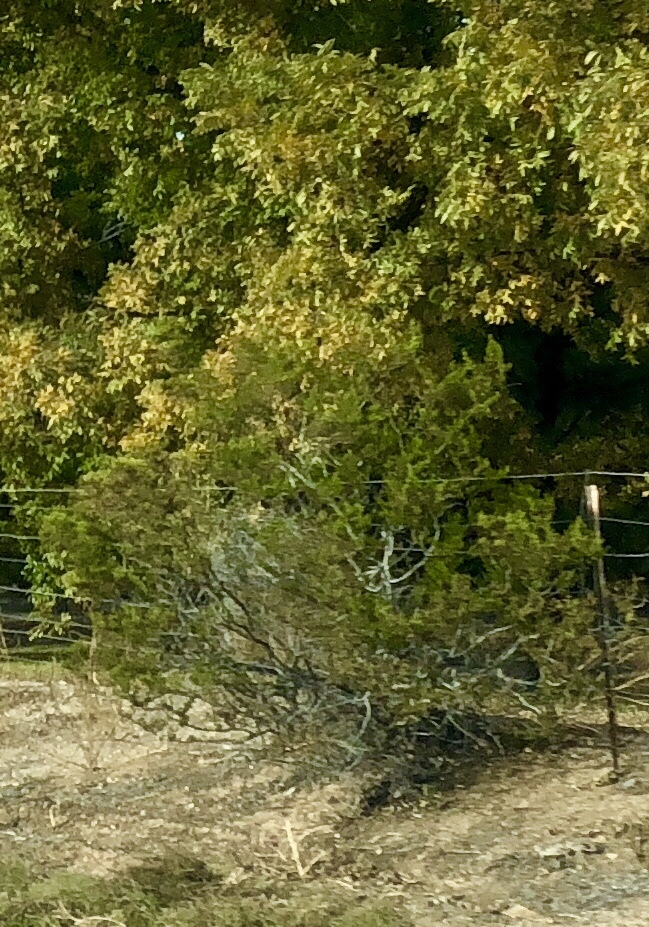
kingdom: Plantae
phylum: Tracheophyta
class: Magnoliopsida
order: Zygophyllales
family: Zygophyllaceae
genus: Larrea
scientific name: Larrea tridentata
